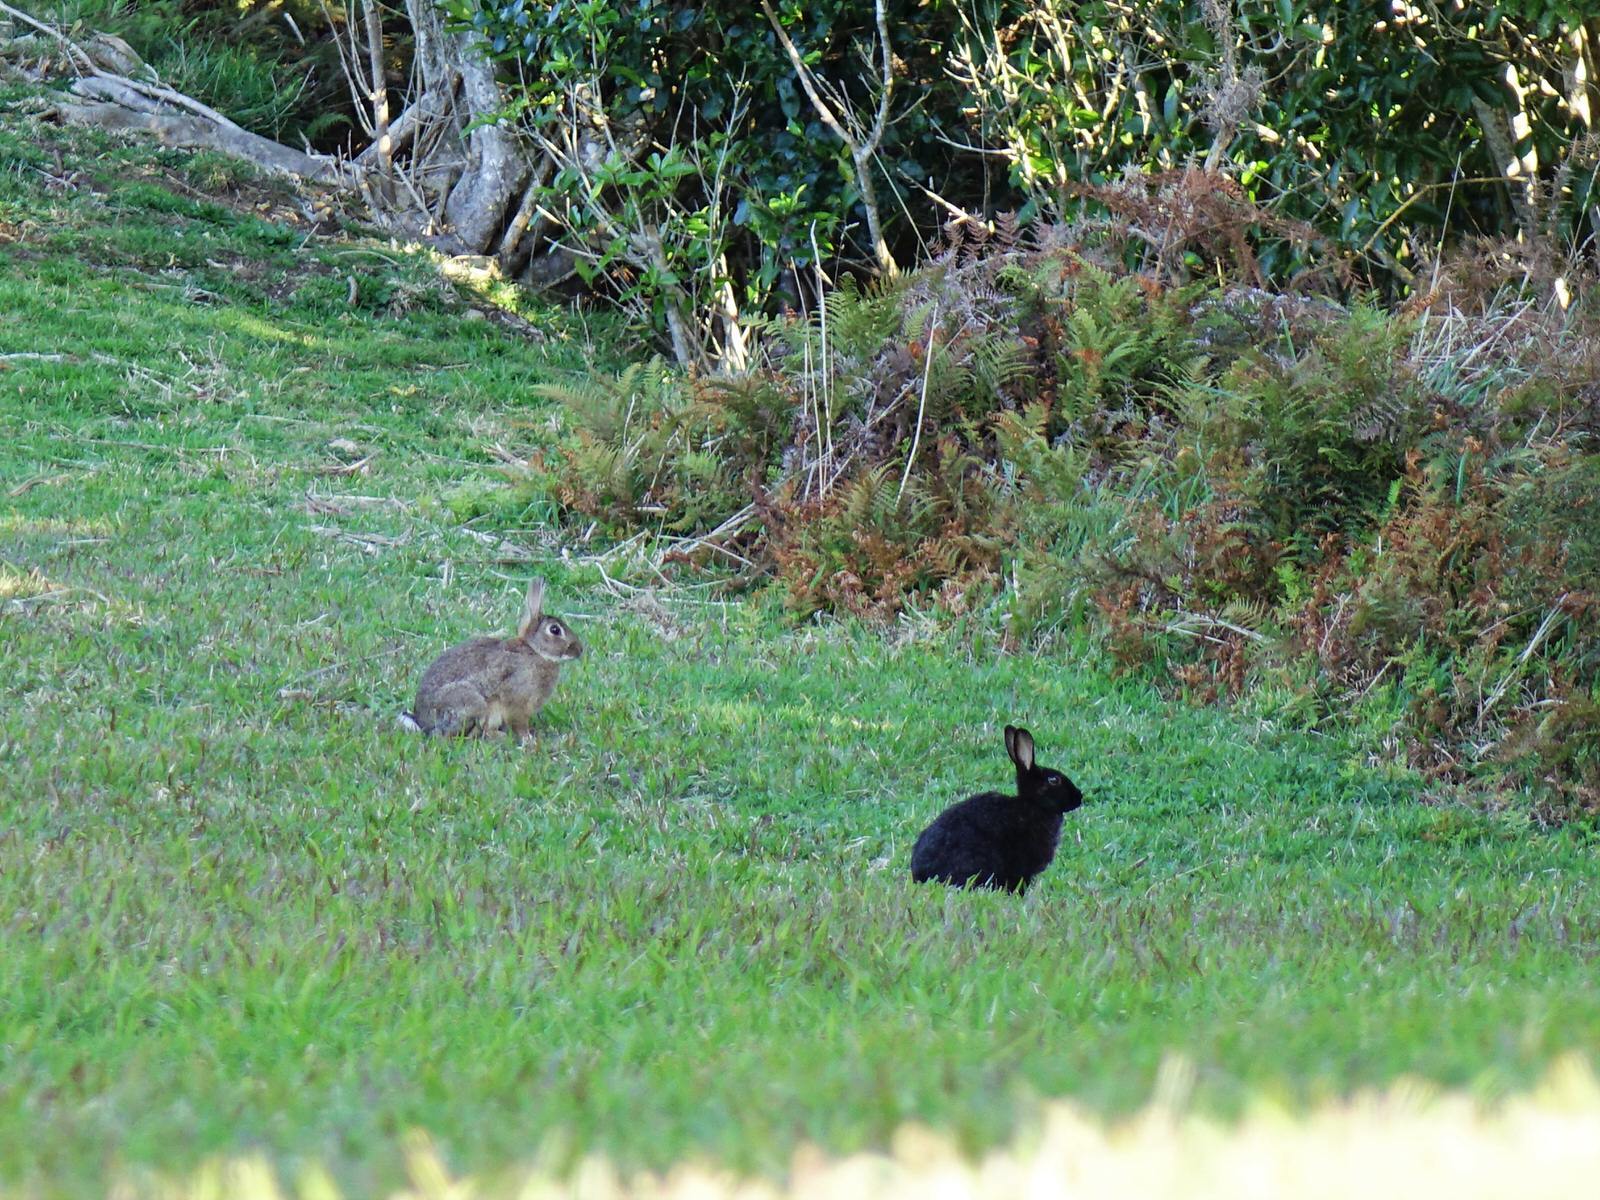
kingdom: Animalia
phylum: Chordata
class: Mammalia
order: Lagomorpha
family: Leporidae
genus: Oryctolagus
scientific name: Oryctolagus cuniculus
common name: European rabbit
